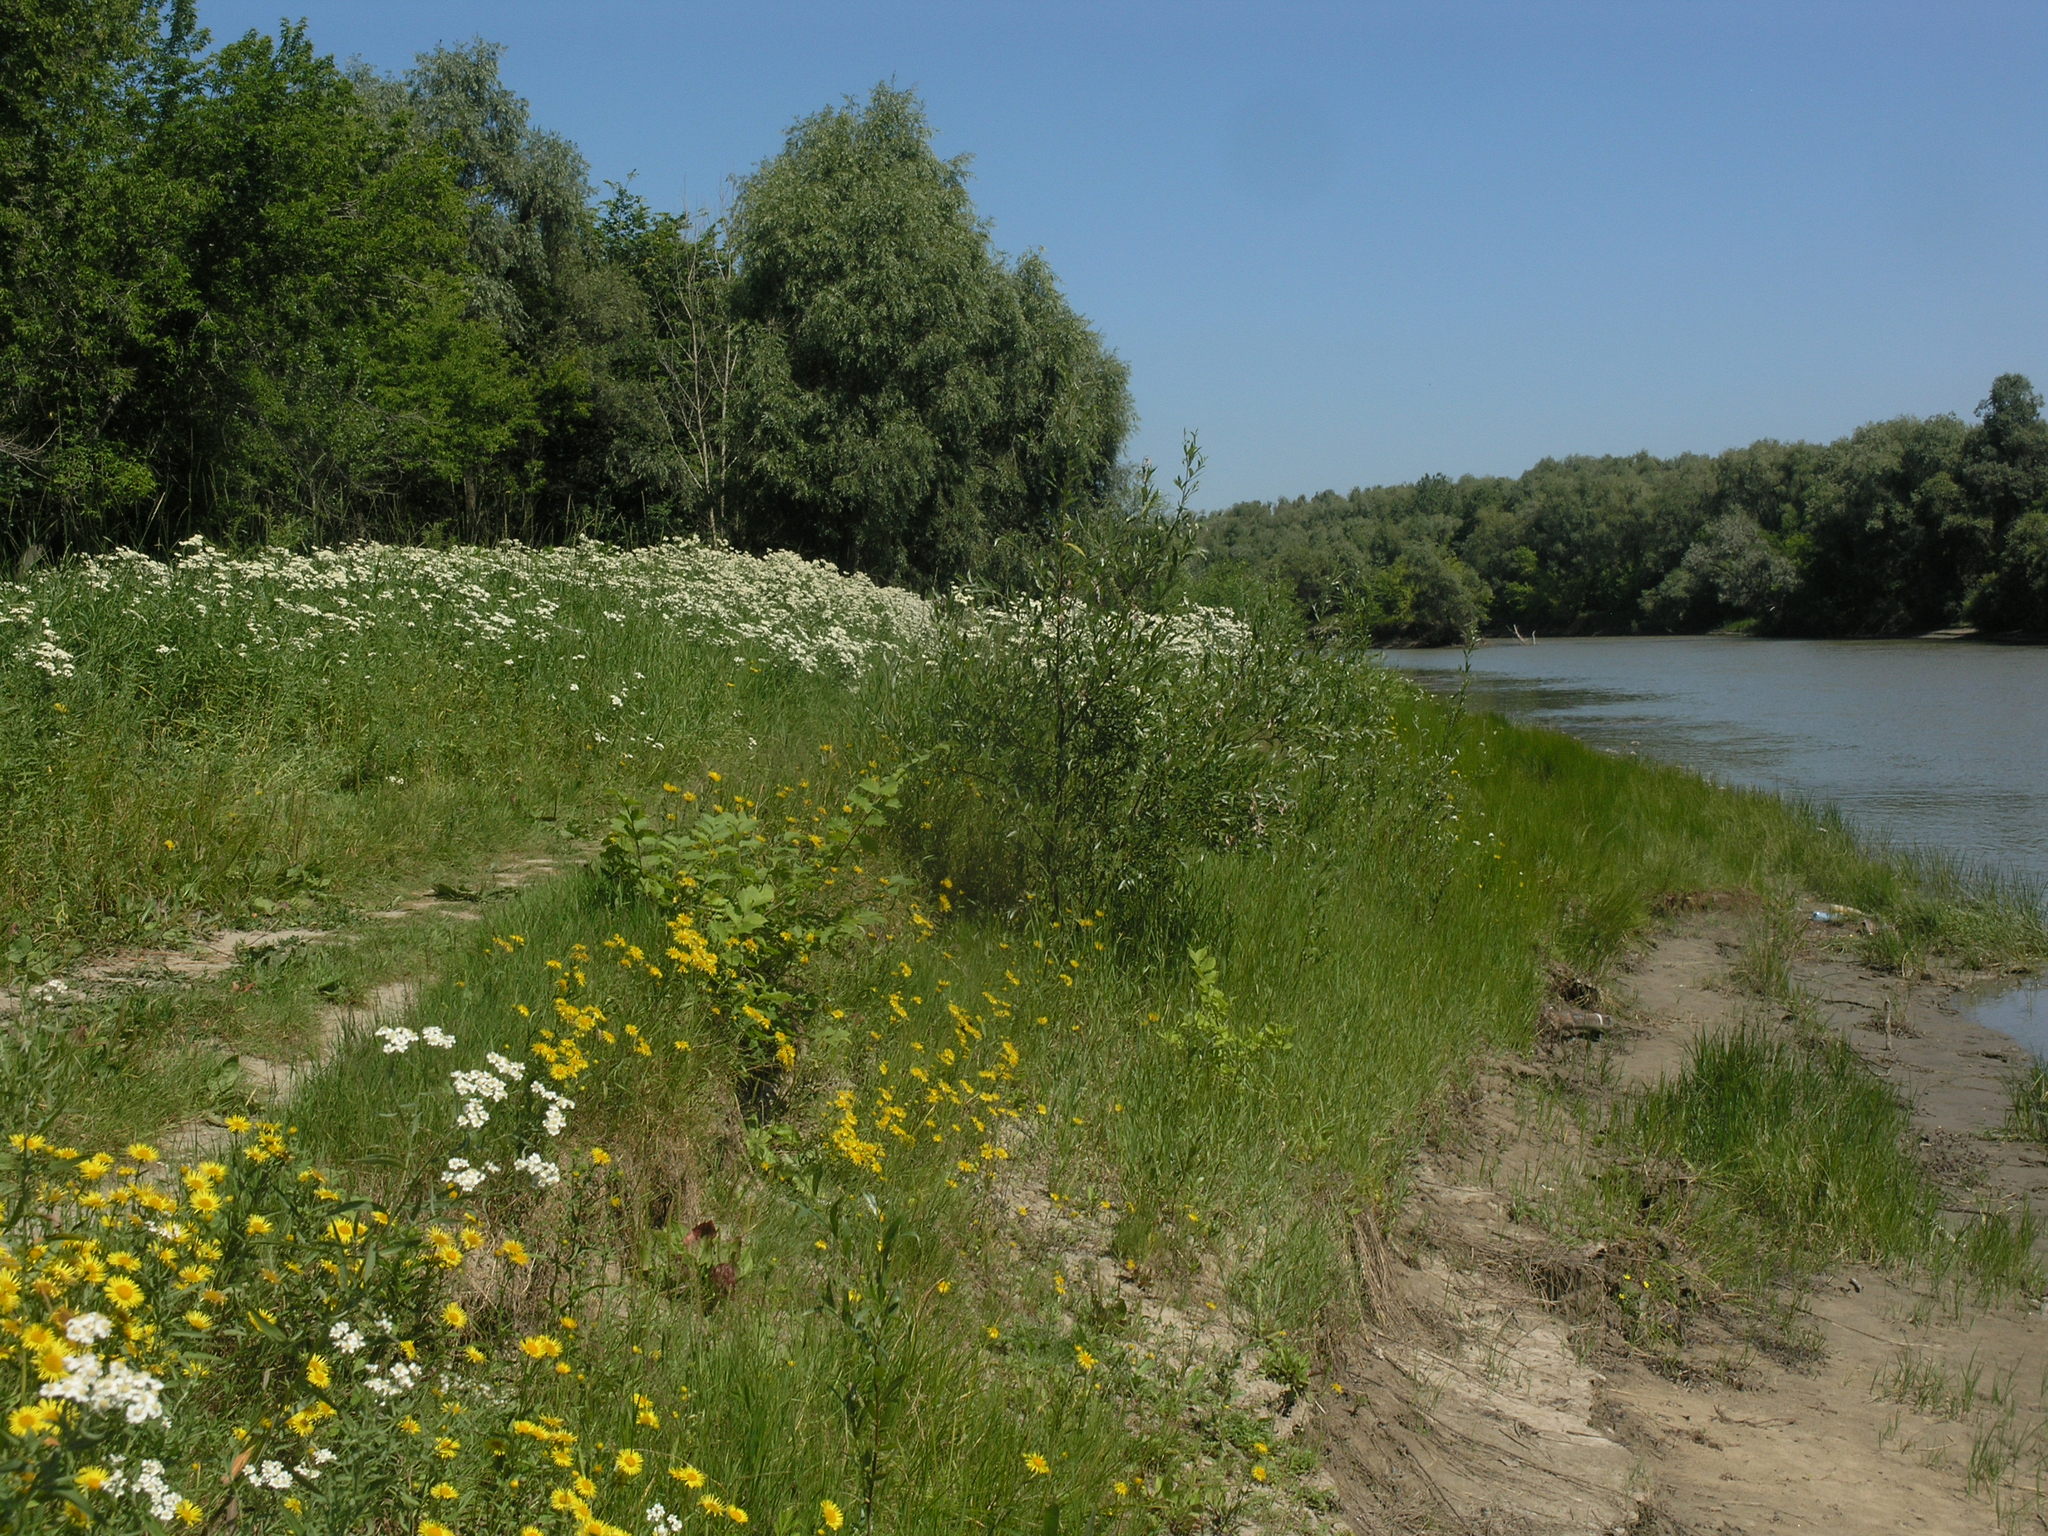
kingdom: Plantae
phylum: Tracheophyta
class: Magnoliopsida
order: Asterales
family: Asteraceae
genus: Pentanema
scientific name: Pentanema britannicum
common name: British elecampane
